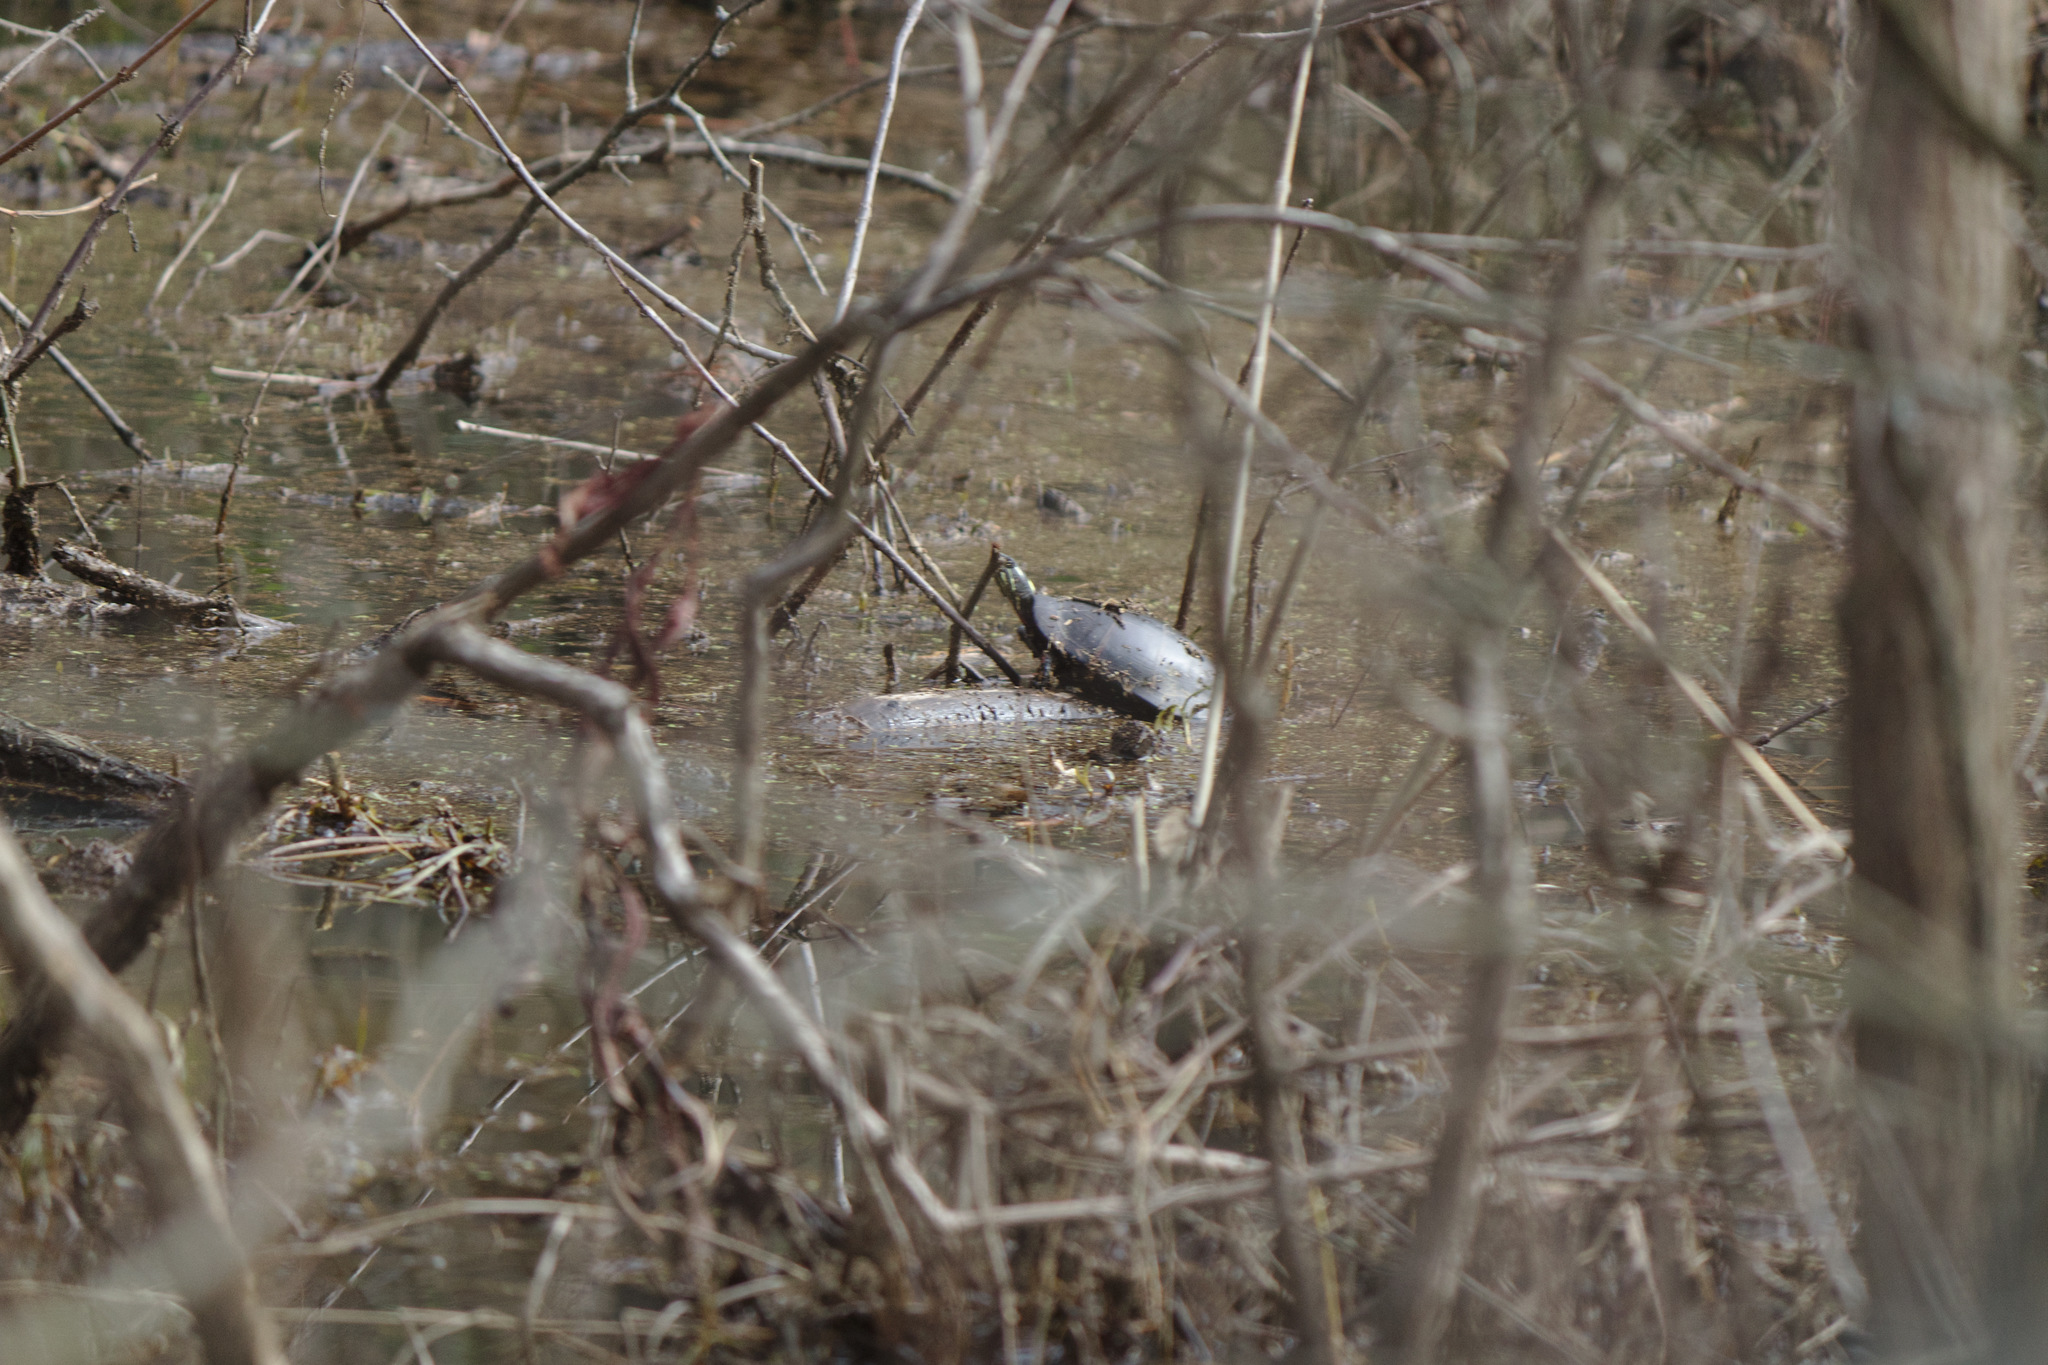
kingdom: Animalia
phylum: Chordata
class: Testudines
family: Emydidae
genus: Chrysemys
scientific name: Chrysemys picta
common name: Painted turtle
